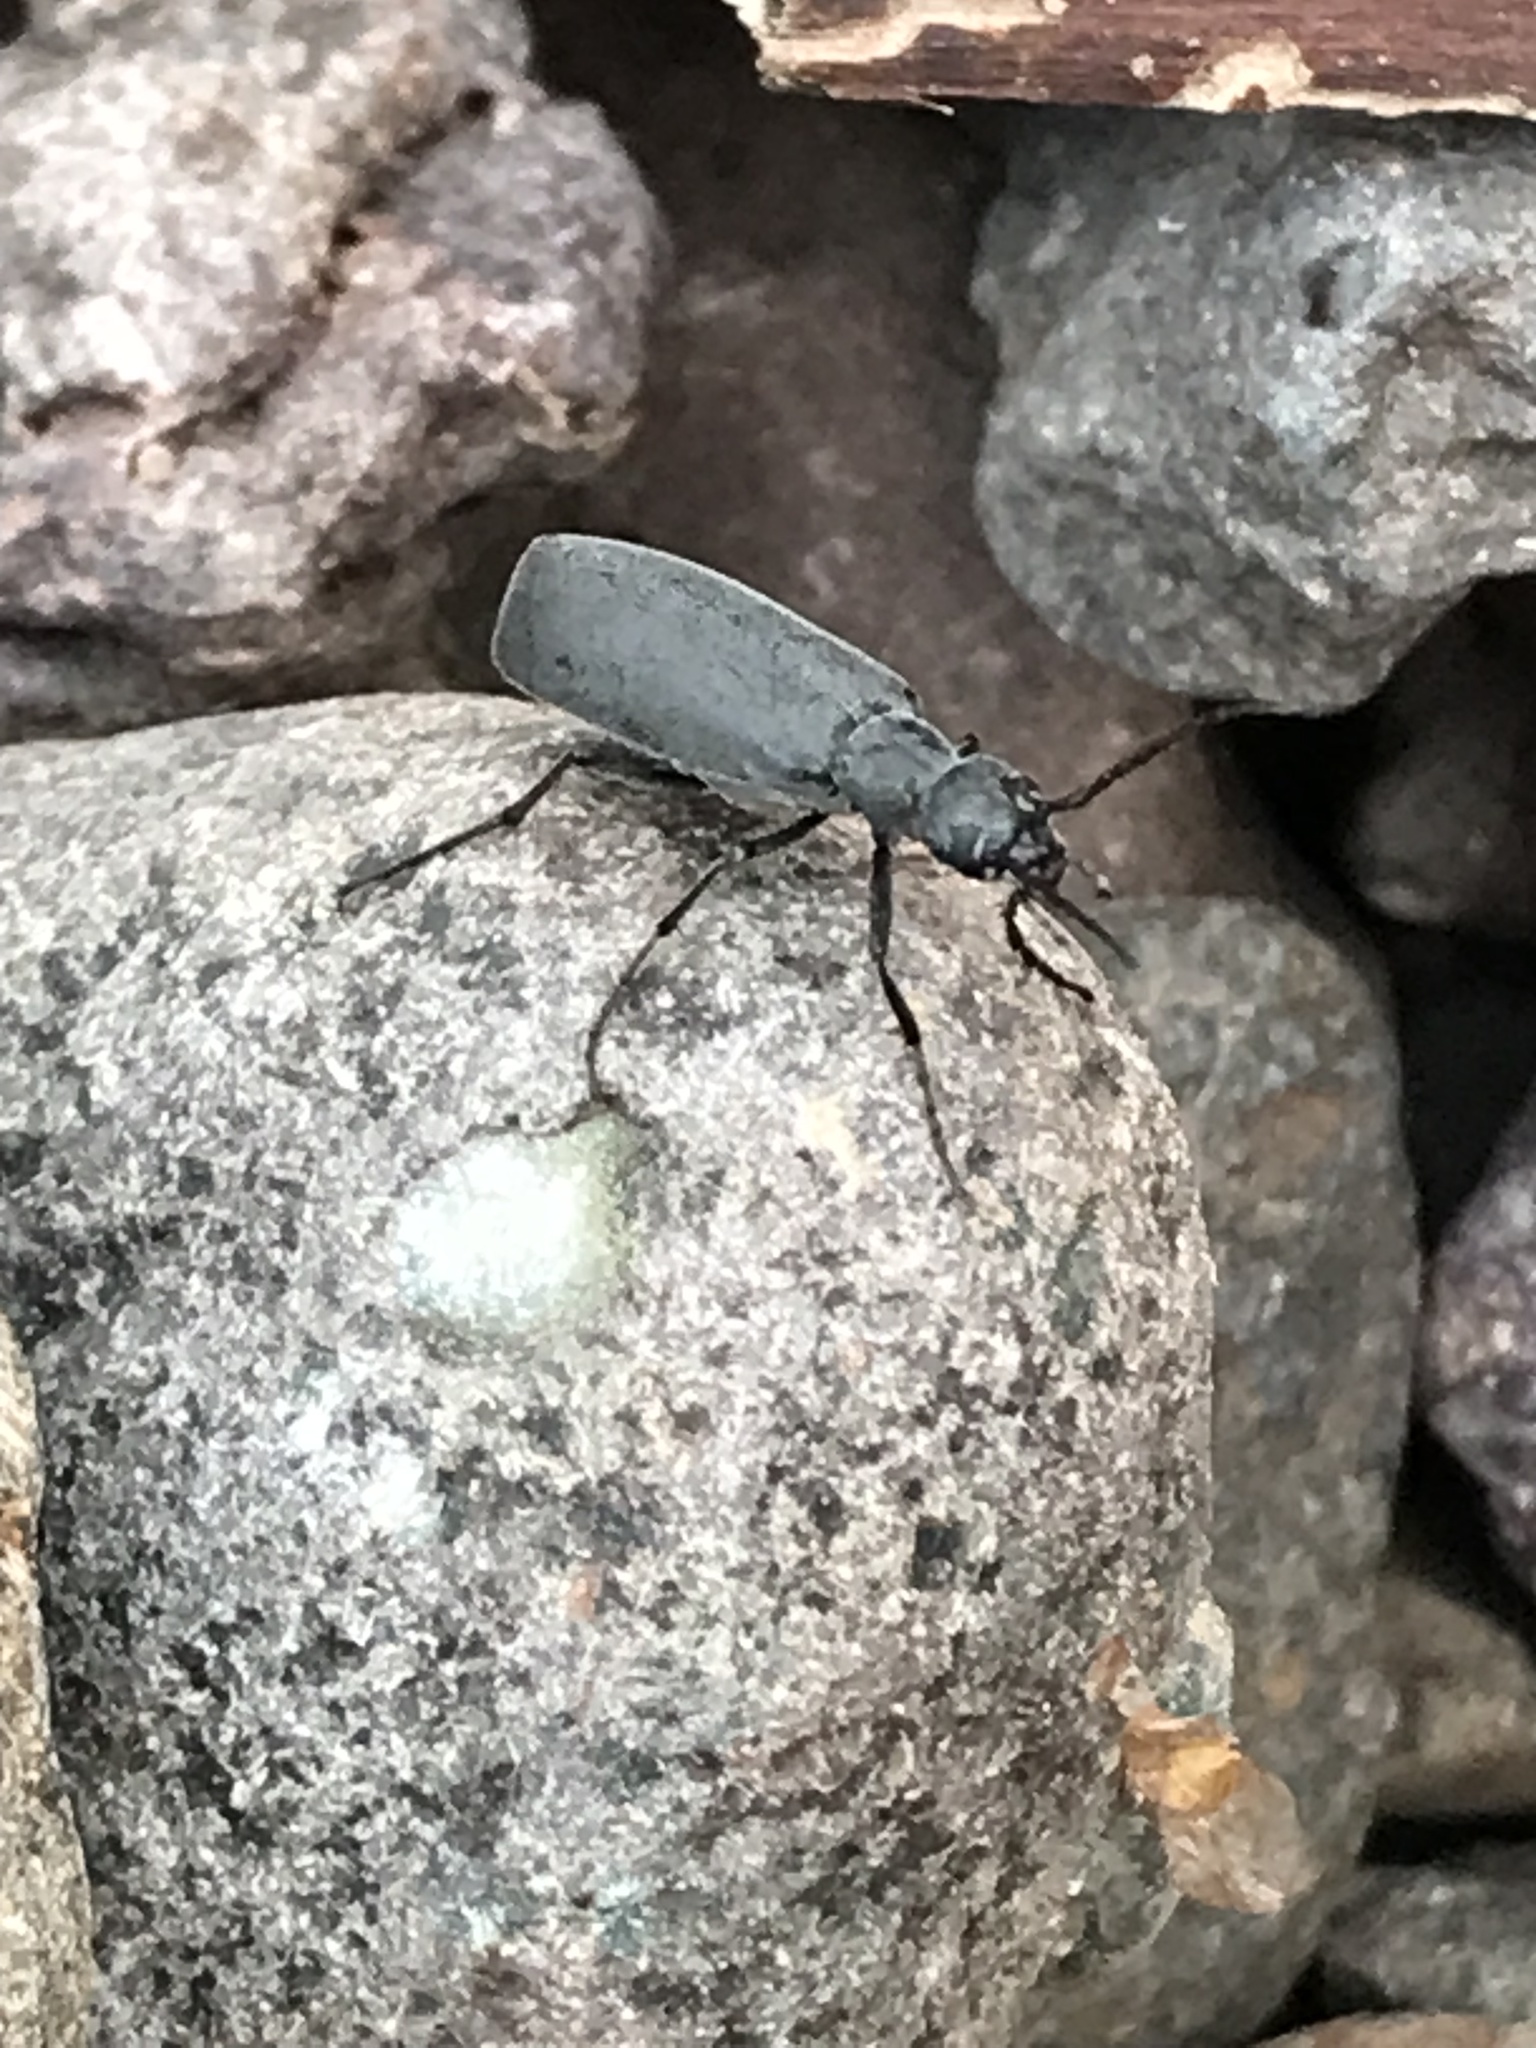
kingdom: Animalia
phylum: Arthropoda
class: Insecta
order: Coleoptera
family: Meloidae
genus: Epicauta
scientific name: Epicauta murina
